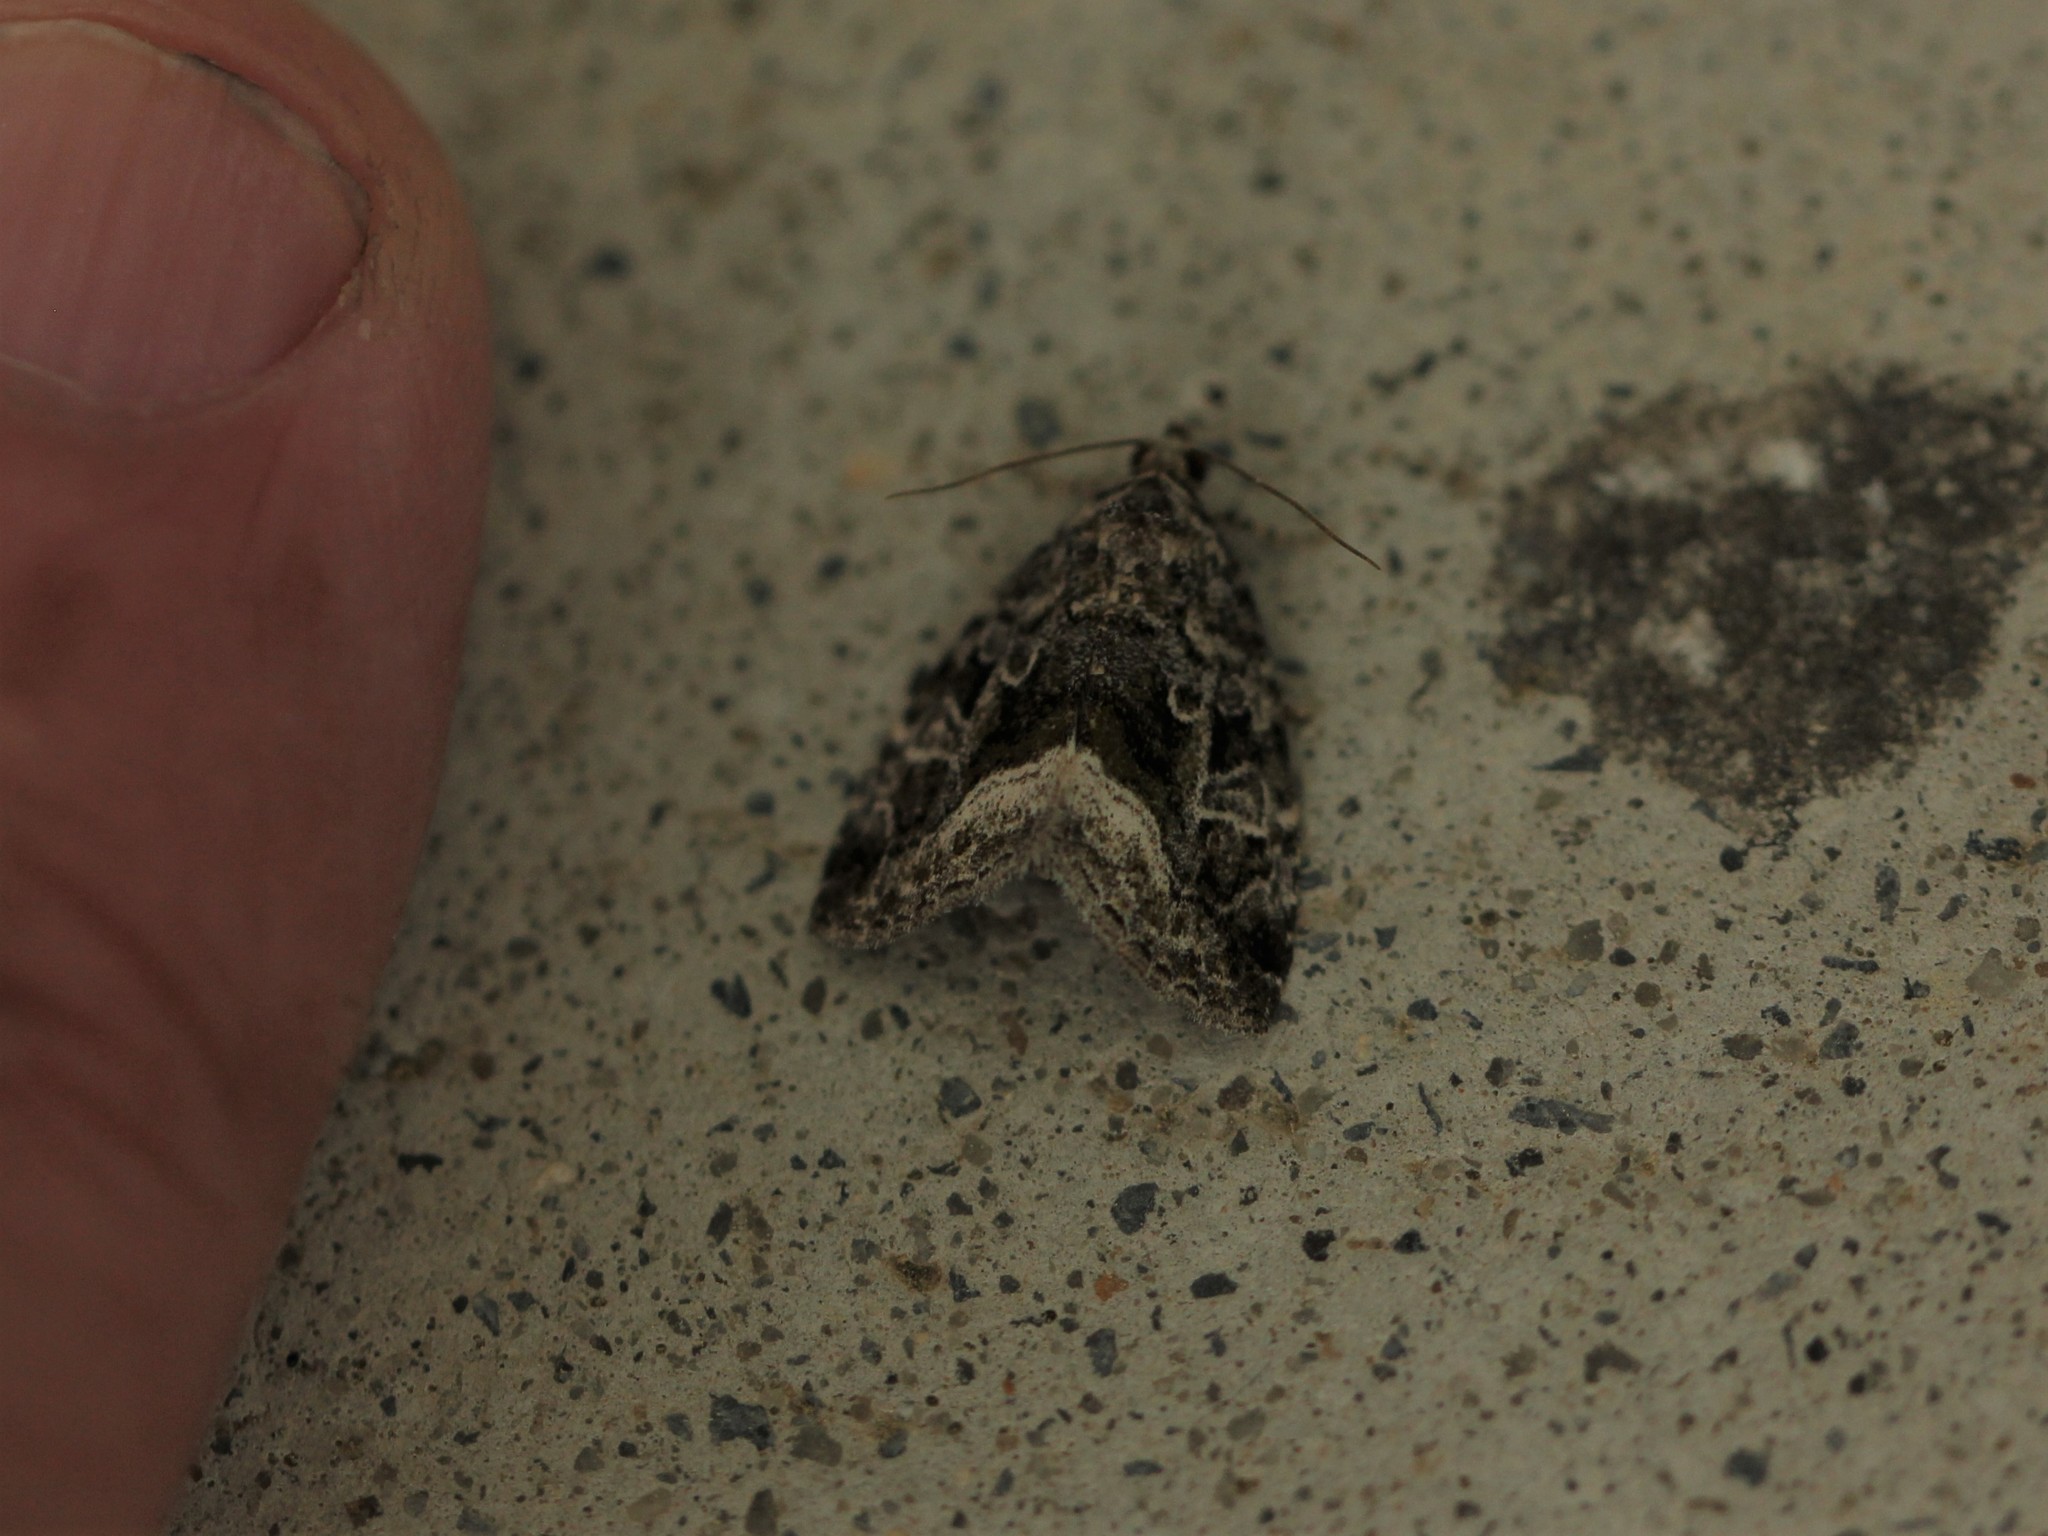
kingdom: Animalia
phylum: Arthropoda
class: Insecta
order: Lepidoptera
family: Noctuidae
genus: Protodeltote
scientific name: Protodeltote muscosula
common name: Large mossy glyph
